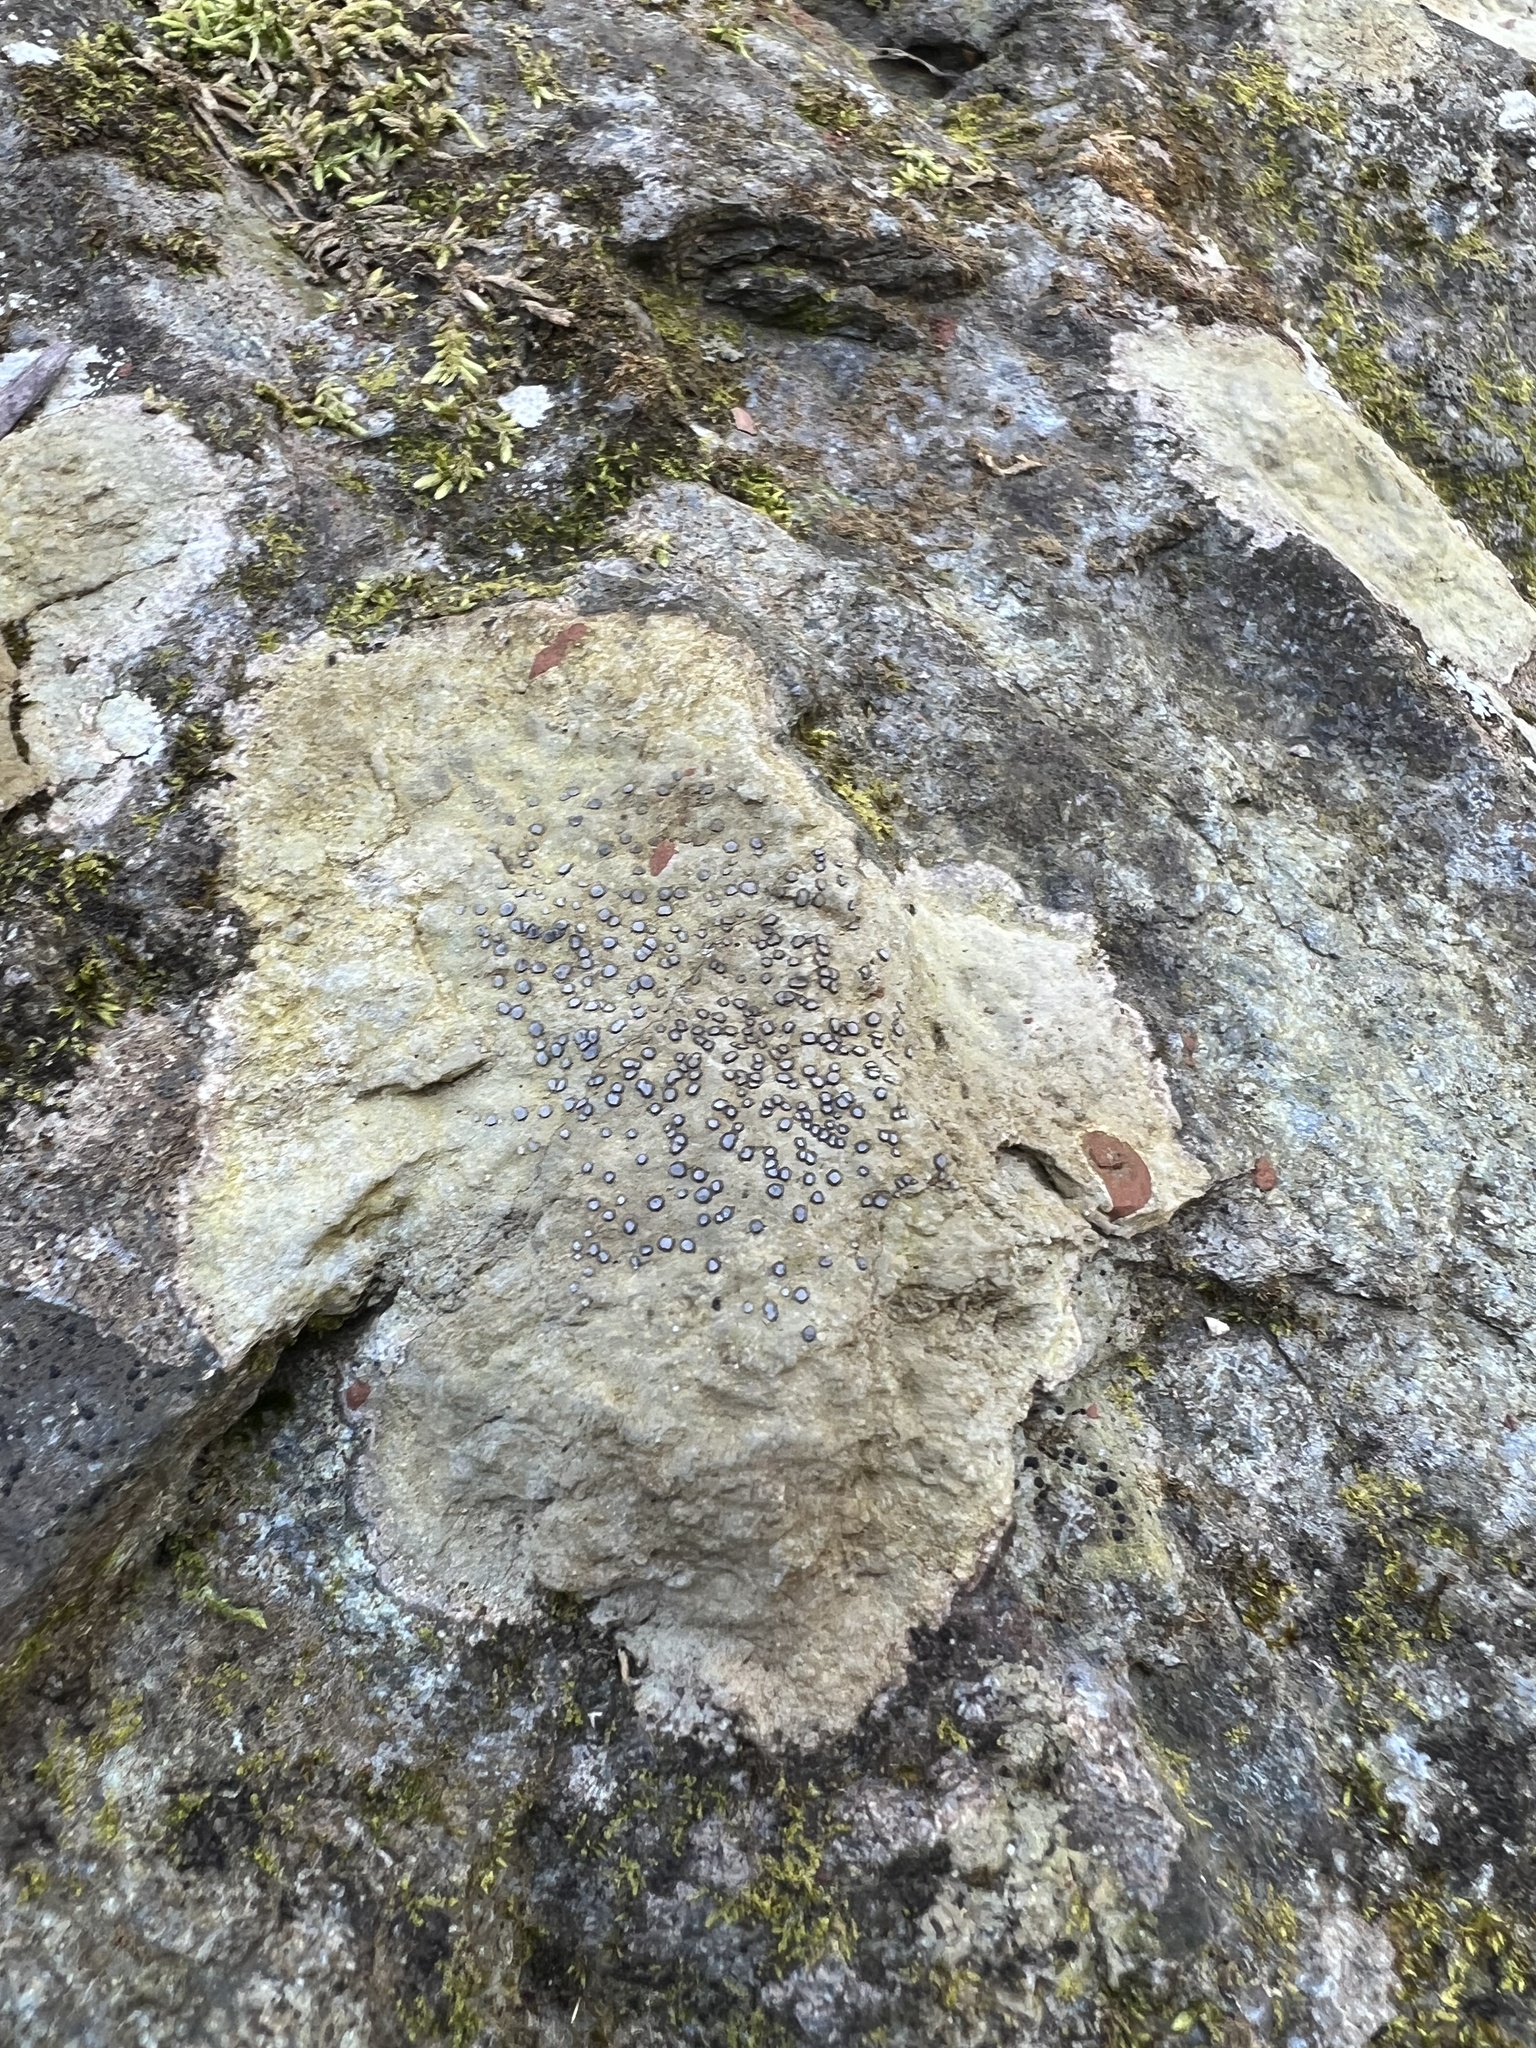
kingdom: Fungi
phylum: Ascomycota
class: Lecanoromycetes
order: Lecideales
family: Lecideaceae
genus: Porpidia
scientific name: Porpidia albocaerulescens
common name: Smokey-eyed boulder lichen
